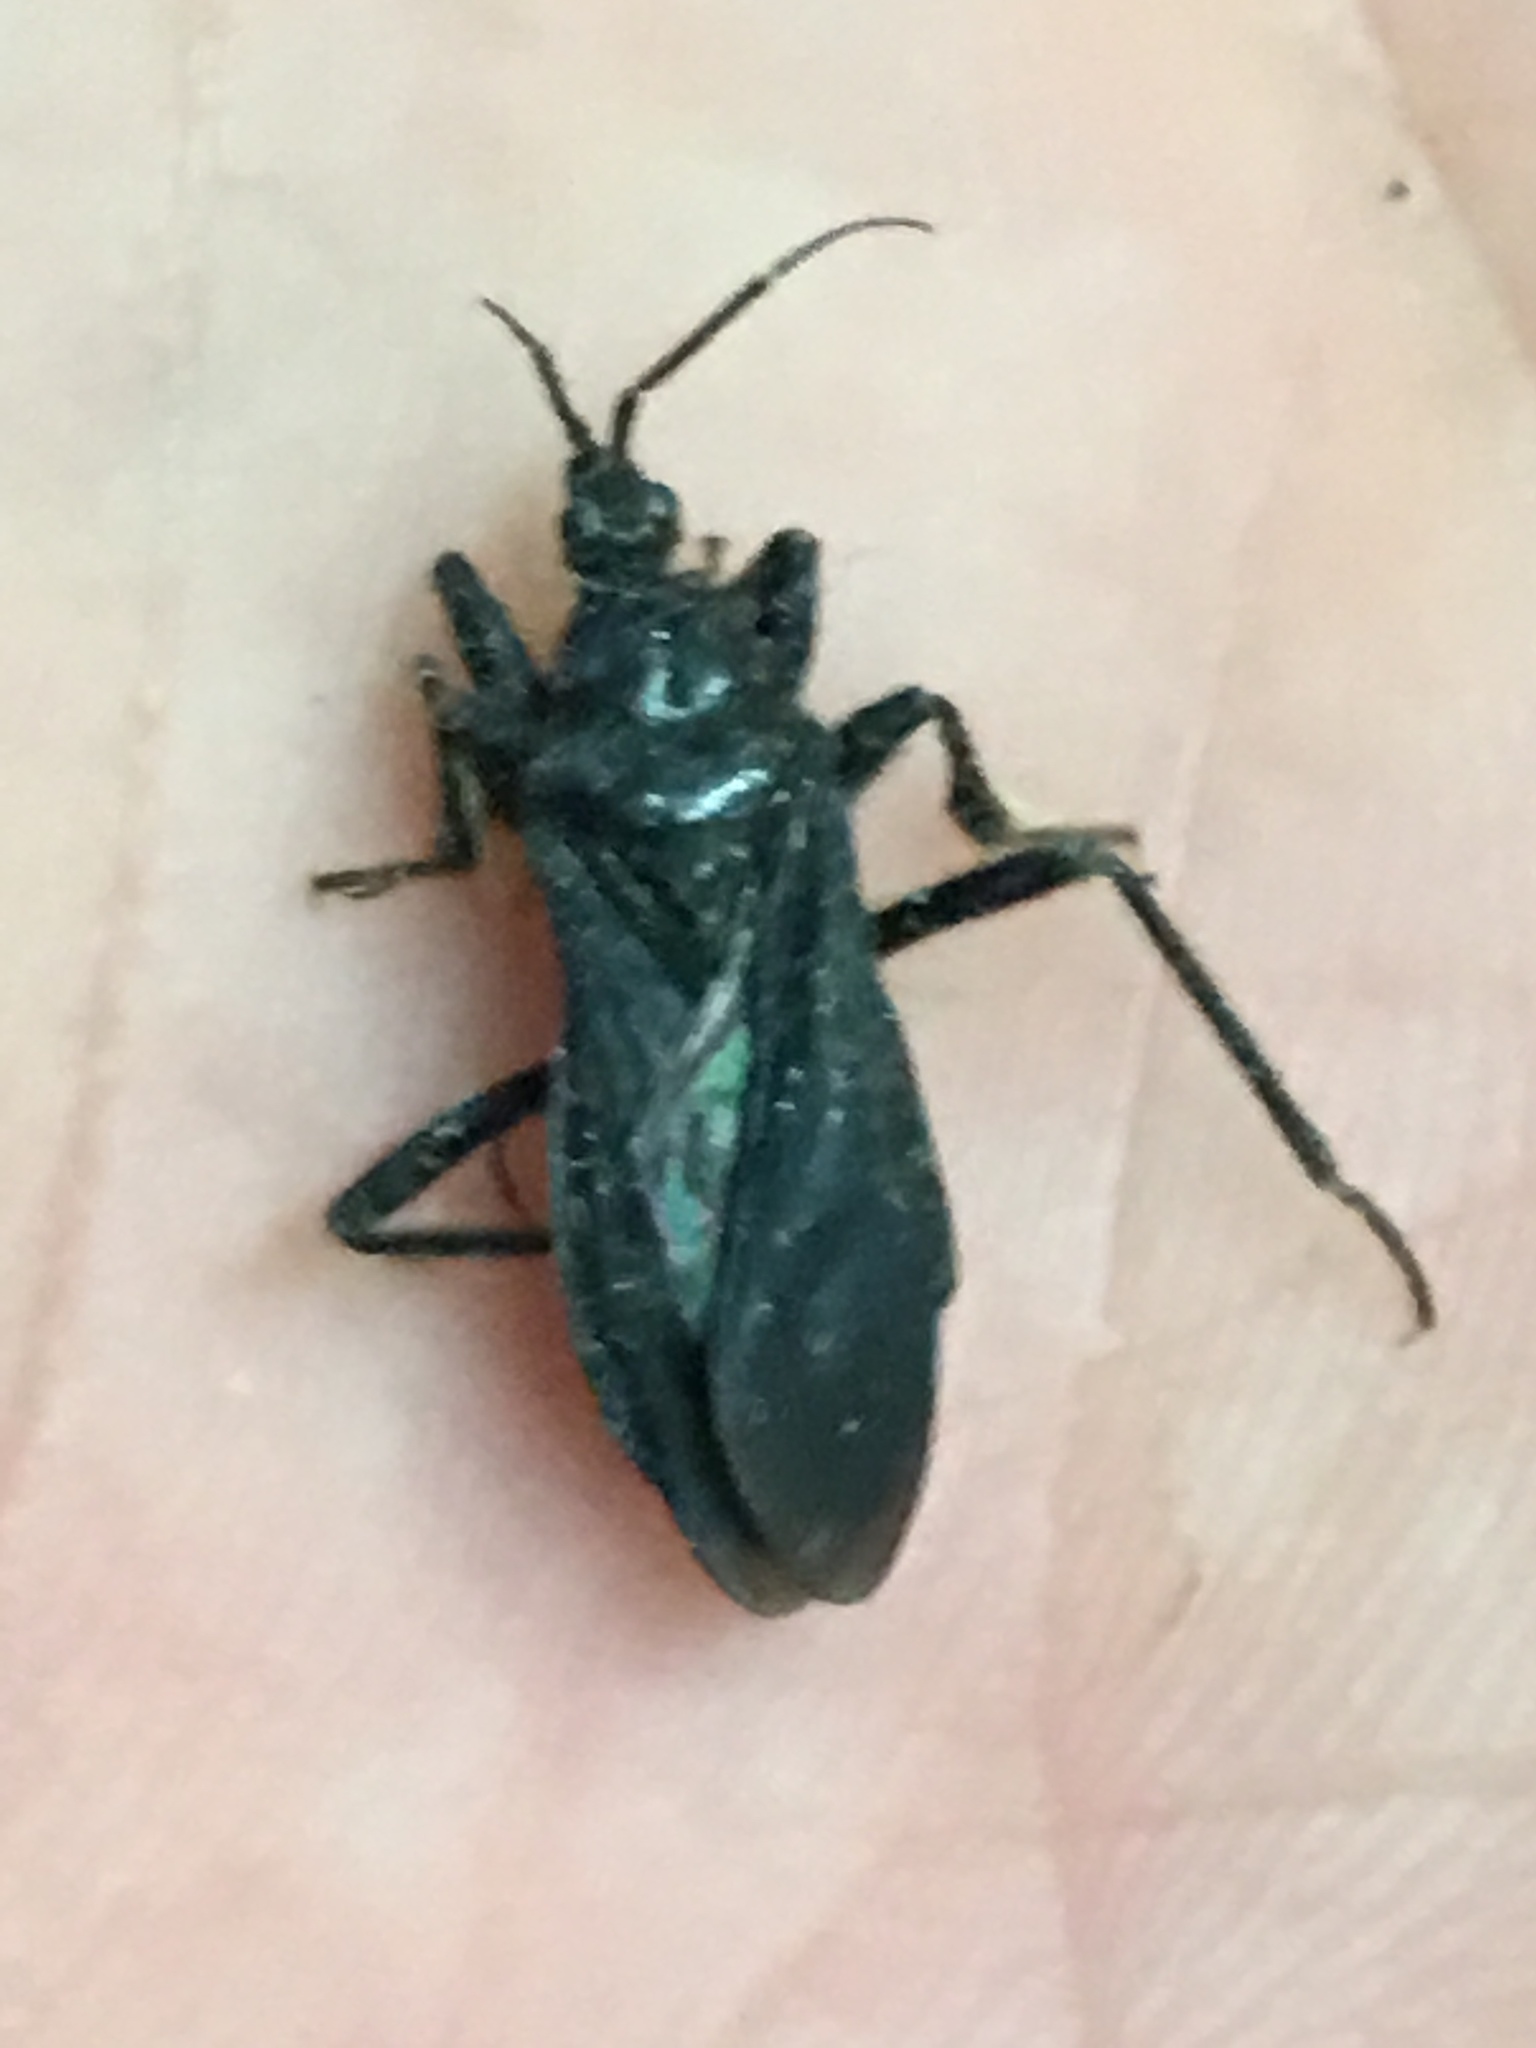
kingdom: Animalia
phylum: Arthropoda
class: Insecta
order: Hemiptera
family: Reduviidae
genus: Melanolestes
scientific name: Melanolestes picipes
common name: Assassin bug
